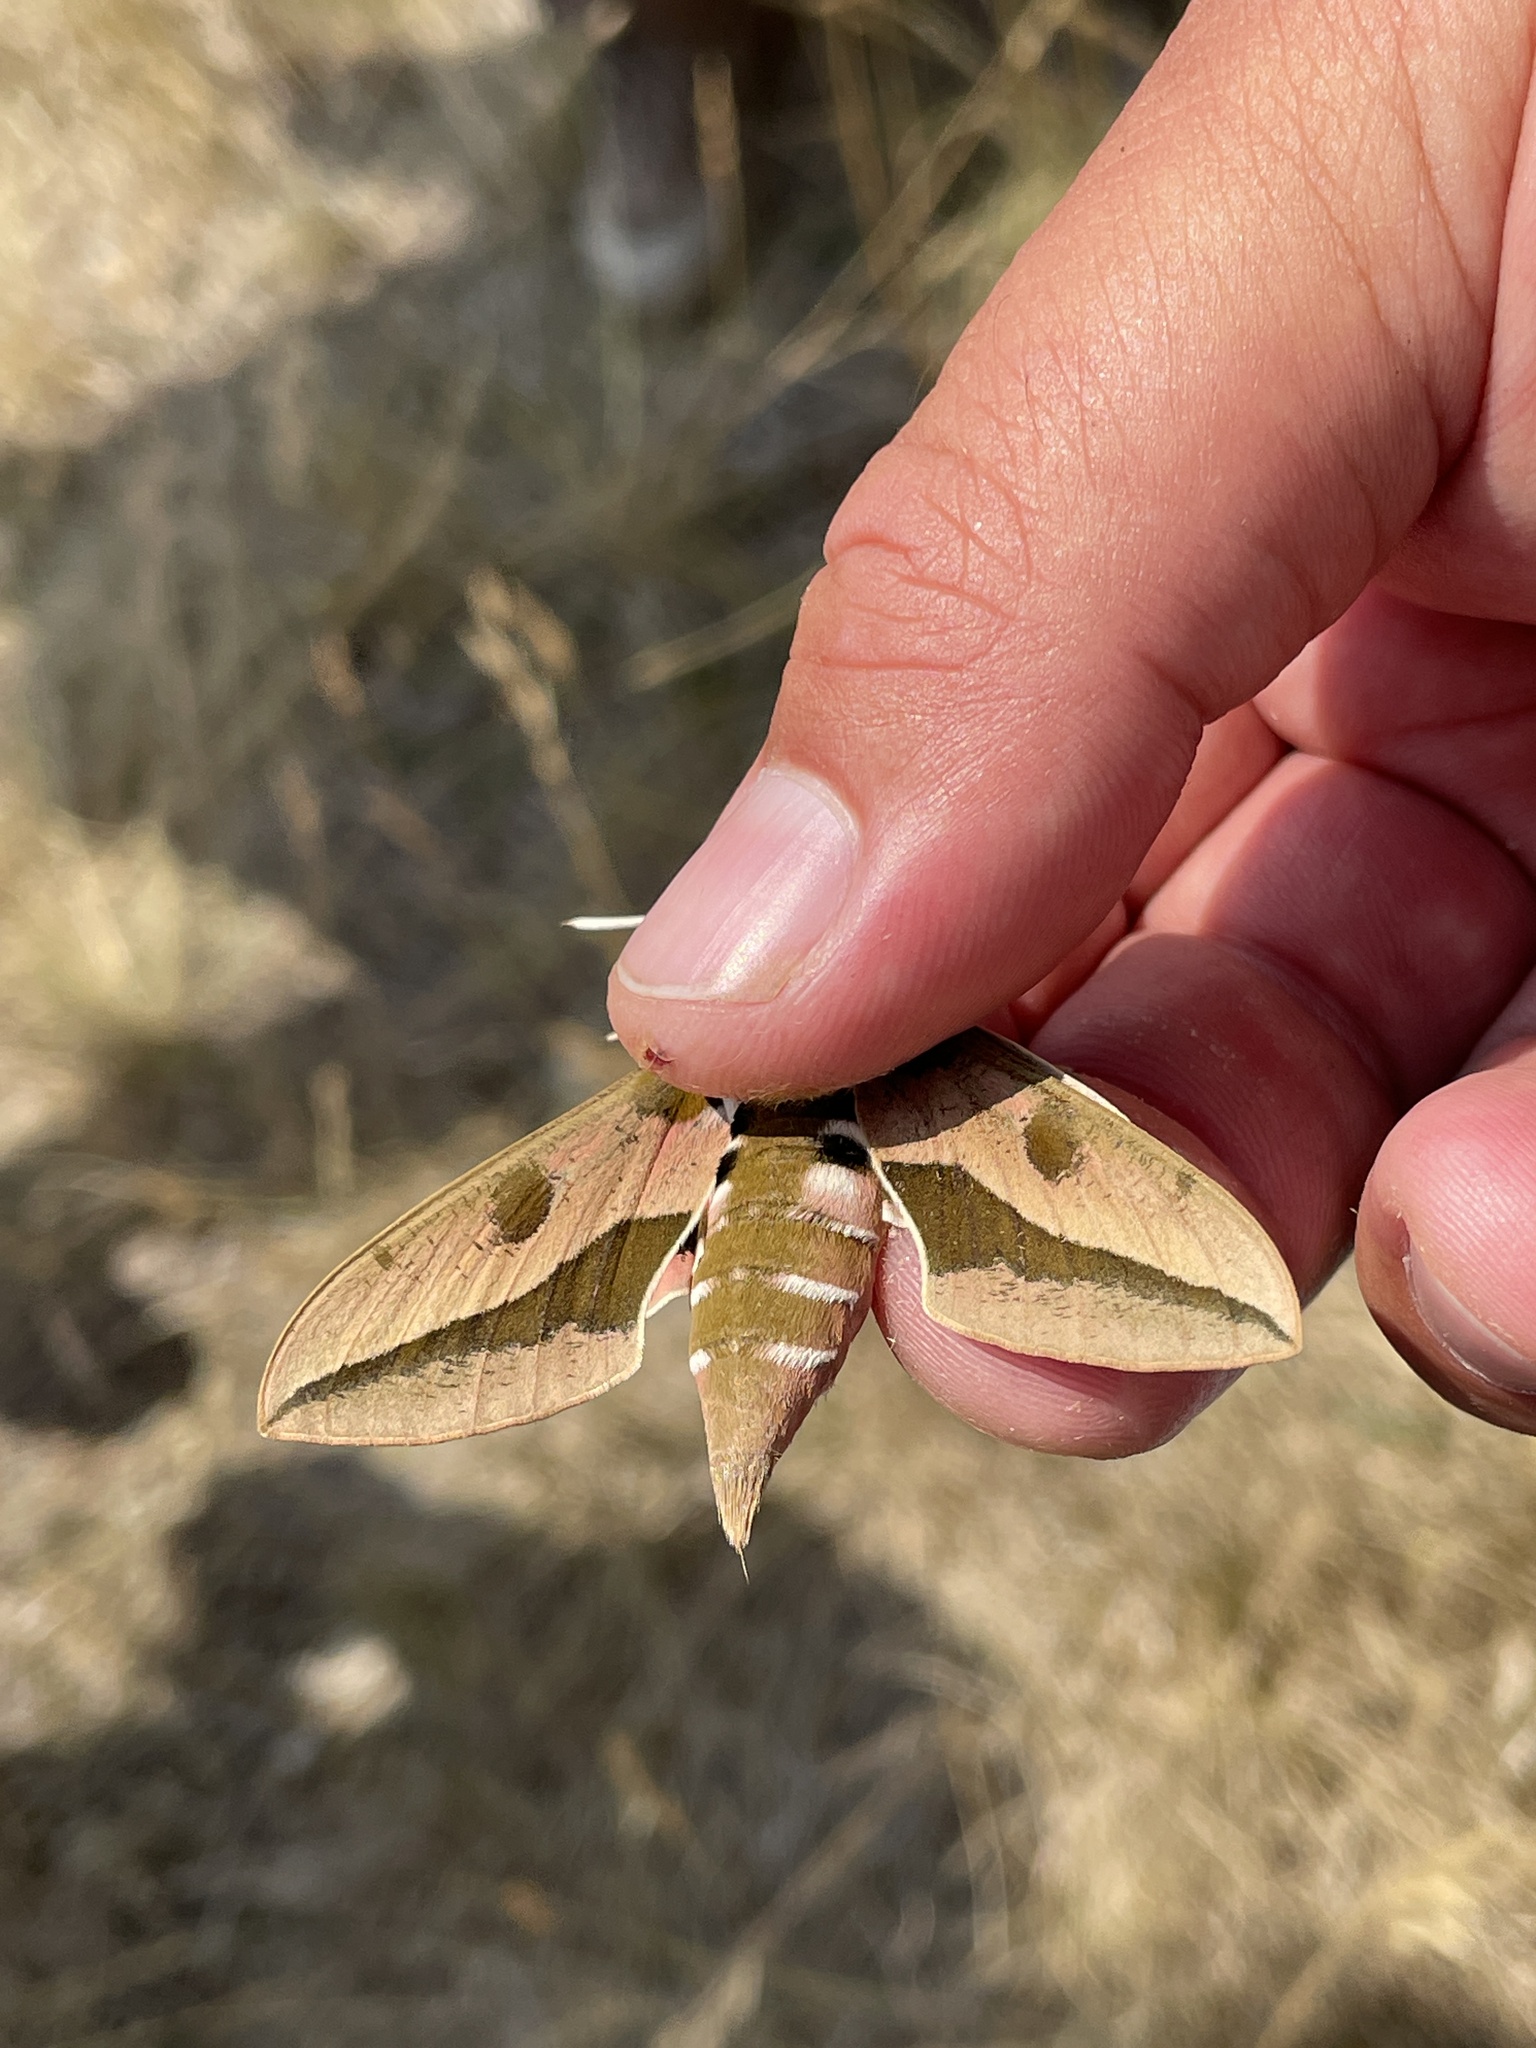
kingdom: Animalia
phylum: Arthropoda
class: Insecta
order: Lepidoptera
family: Sphingidae
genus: Hyles
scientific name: Hyles euphorbiae
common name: Spurge hawk-moth
